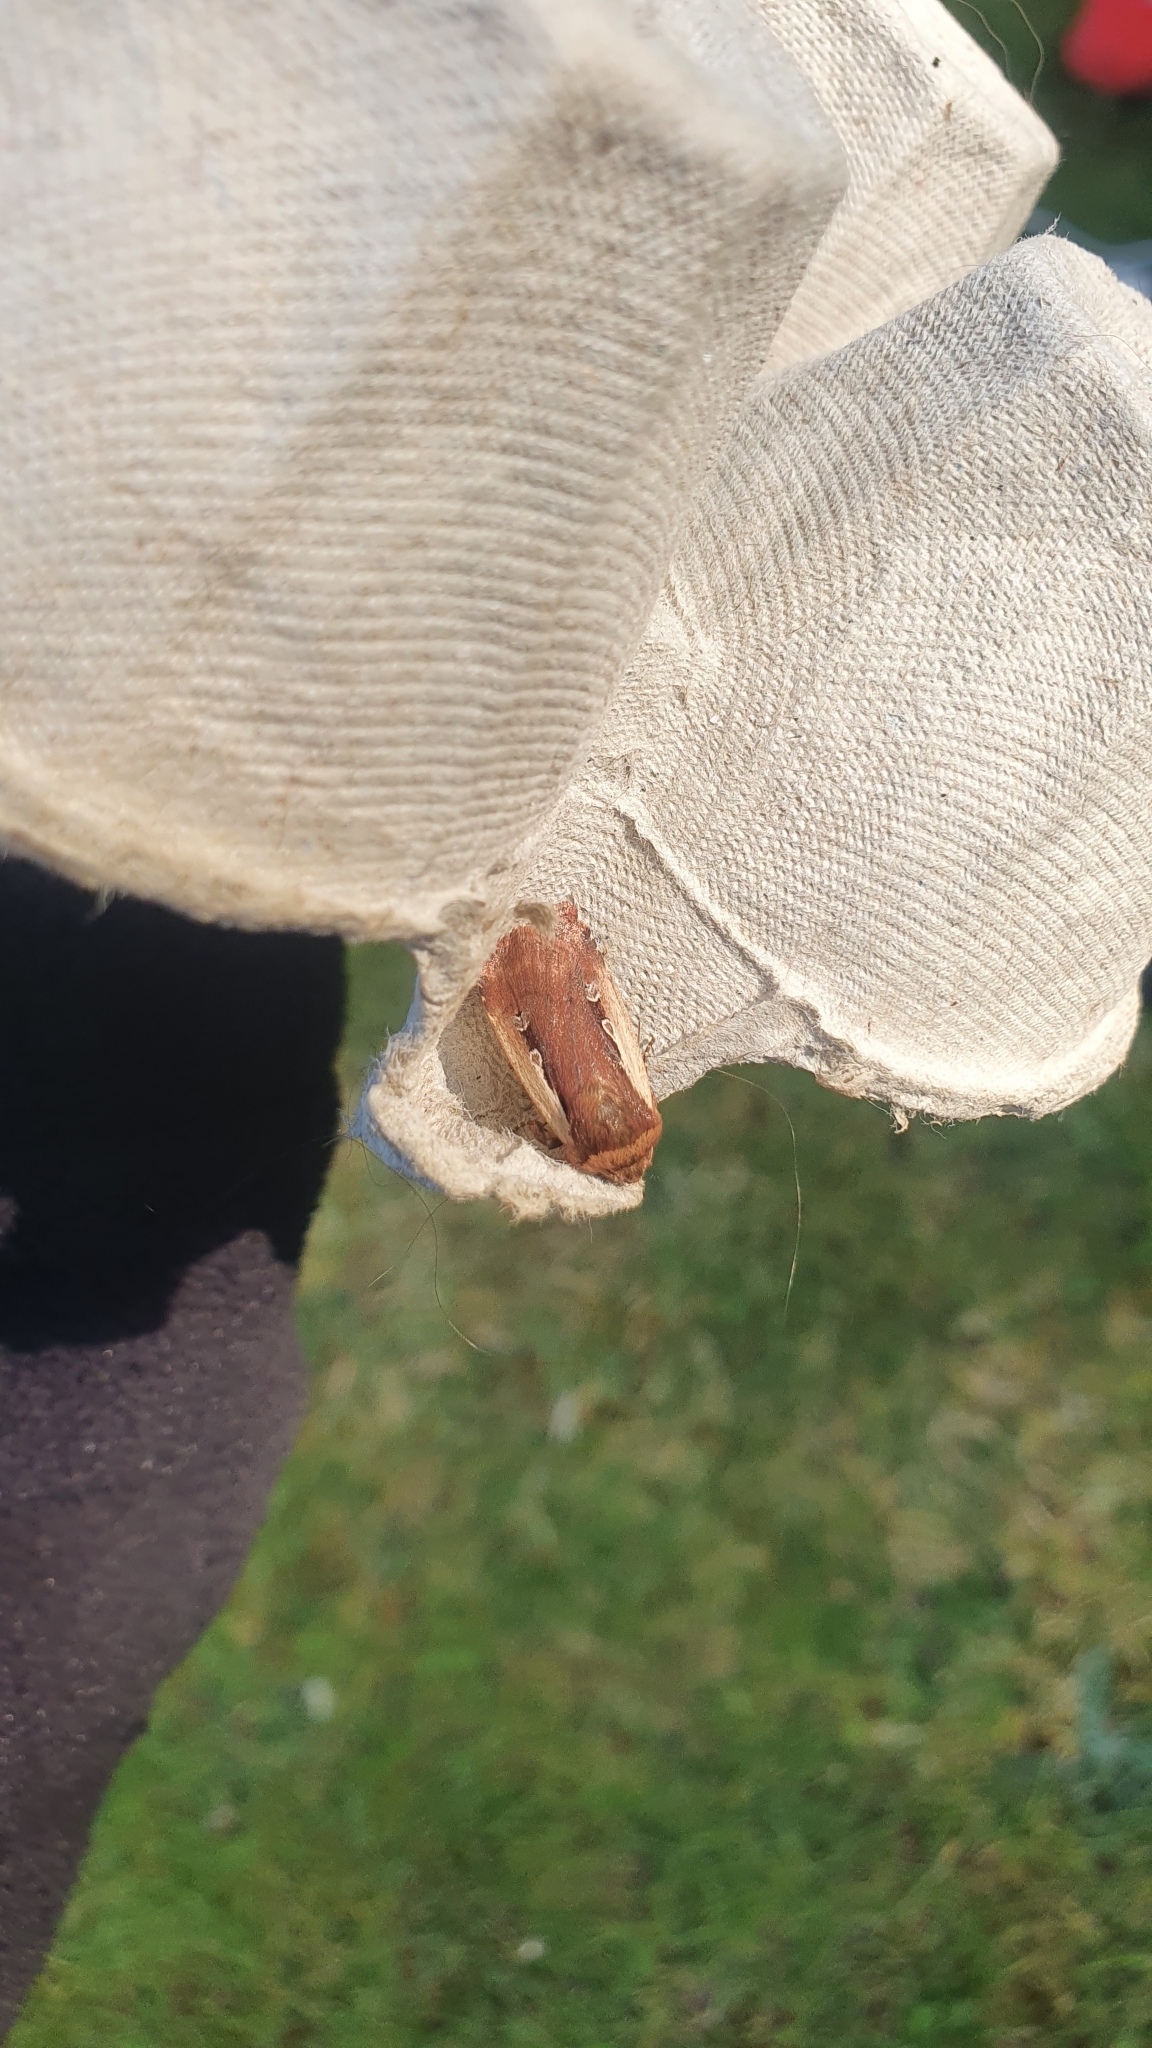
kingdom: Animalia
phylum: Arthropoda
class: Insecta
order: Lepidoptera
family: Noctuidae
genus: Ochropleura
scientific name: Ochropleura plecta
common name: Flame shoulder
